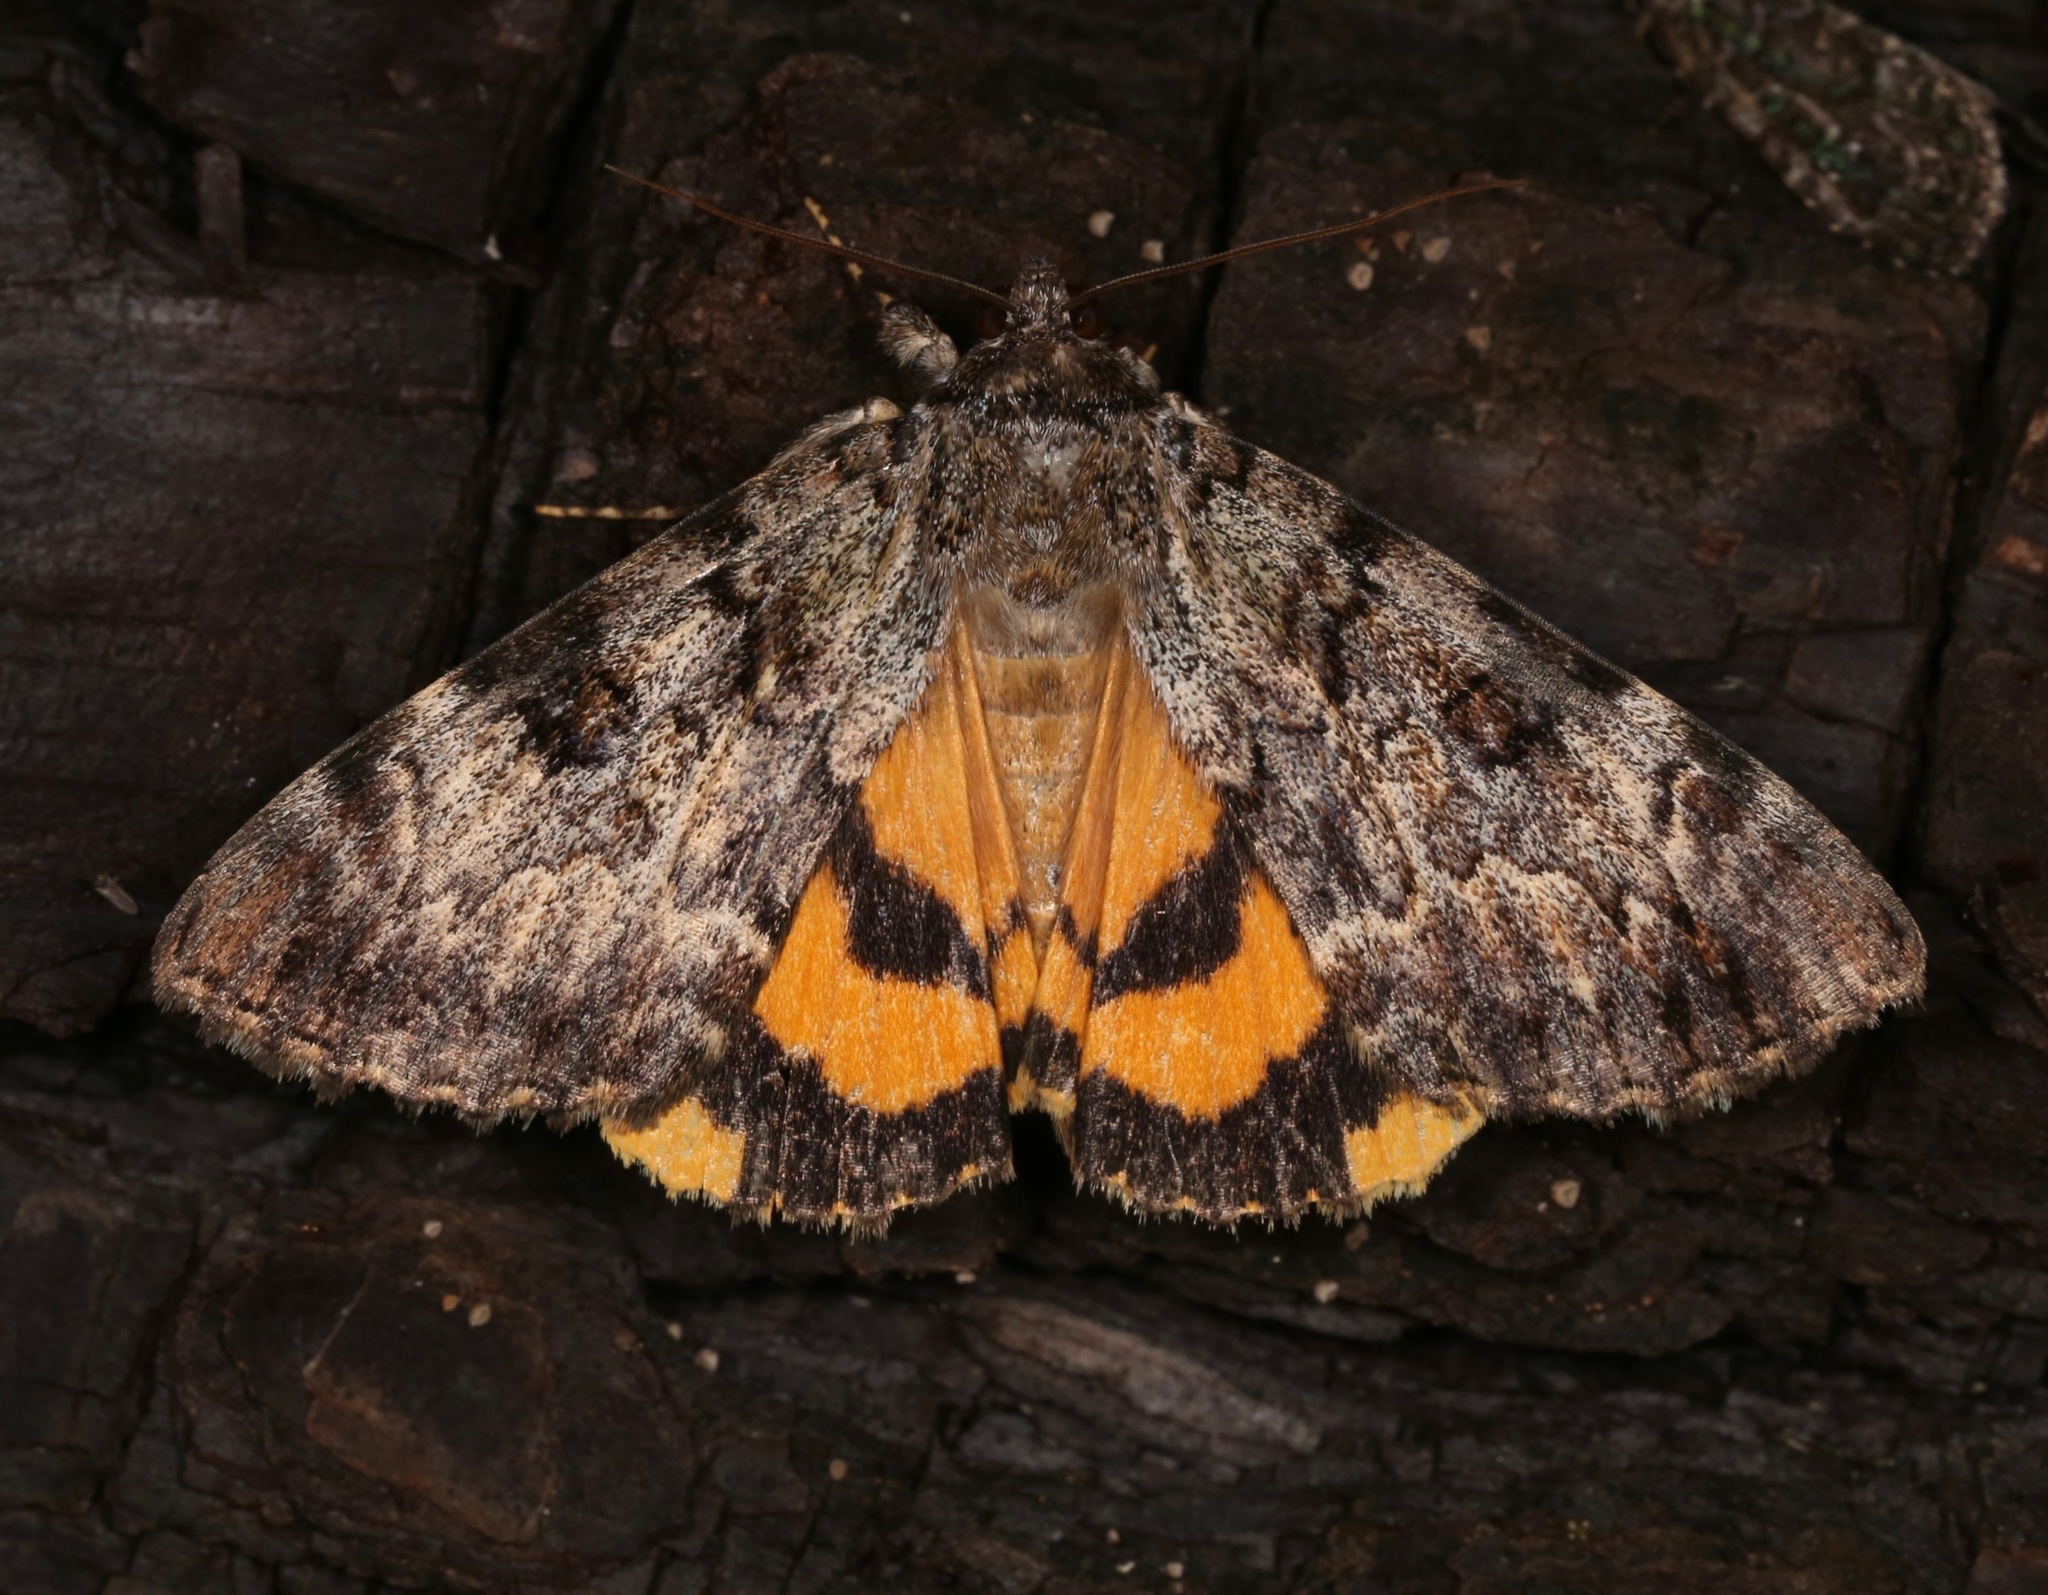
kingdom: Animalia
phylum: Arthropoda
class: Insecta
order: Lepidoptera
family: Erebidae
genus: Catocala
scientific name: Catocala desdemona
